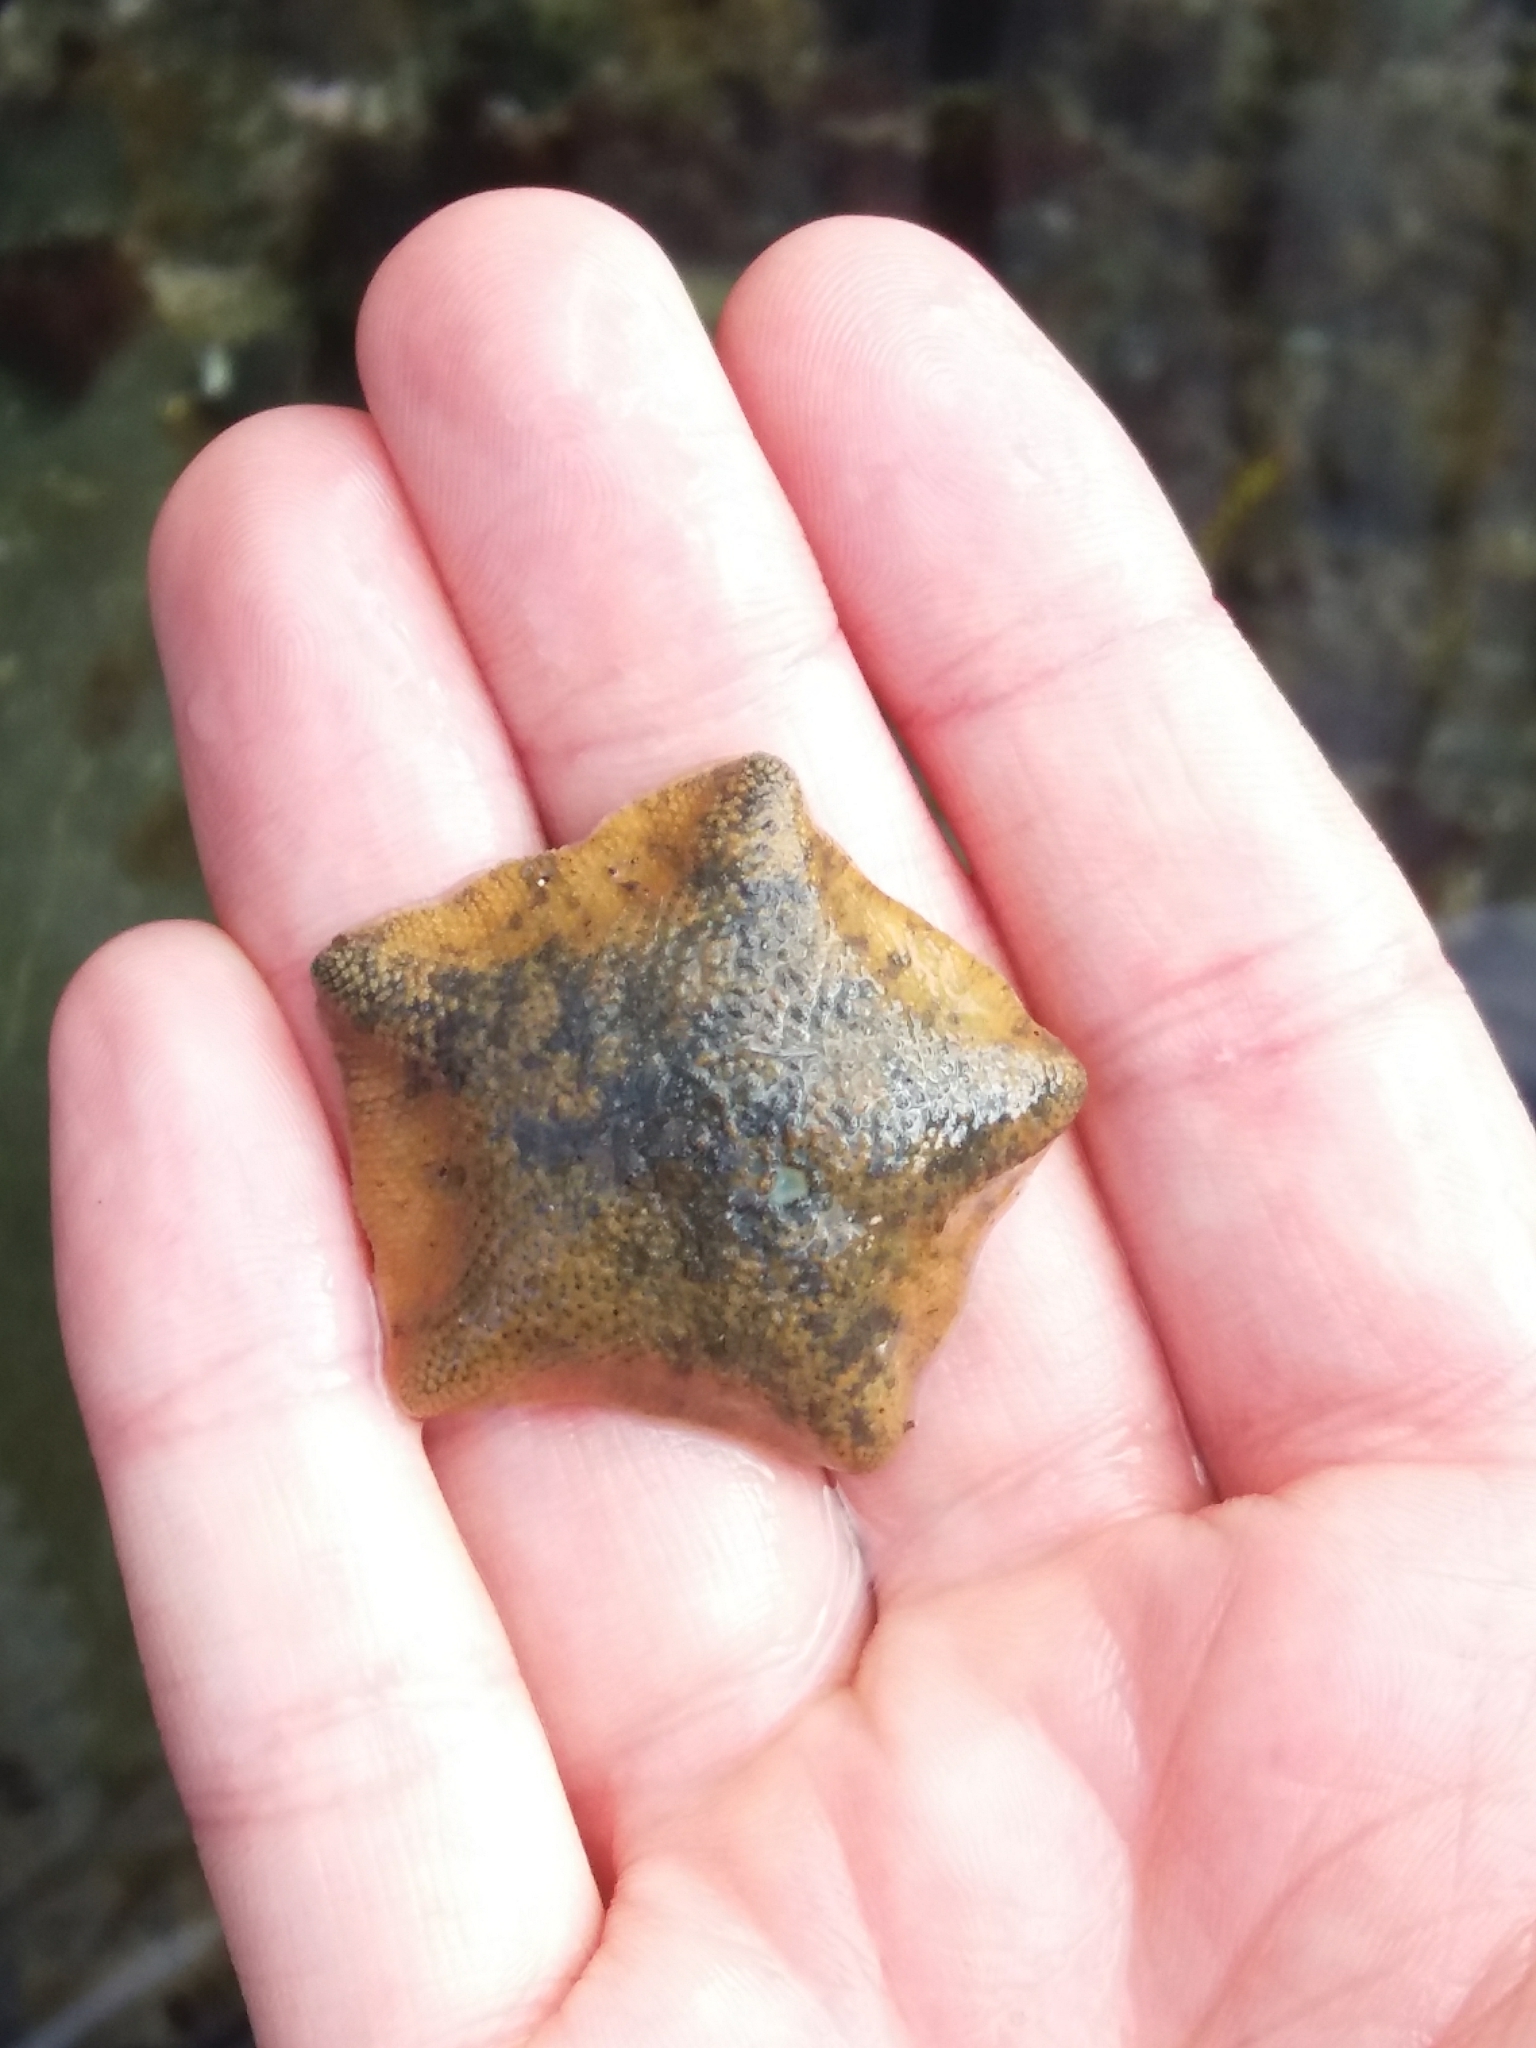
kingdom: Animalia
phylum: Echinodermata
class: Asteroidea
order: Valvatida
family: Asterinidae
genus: Patiriella
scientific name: Patiriella regularis
